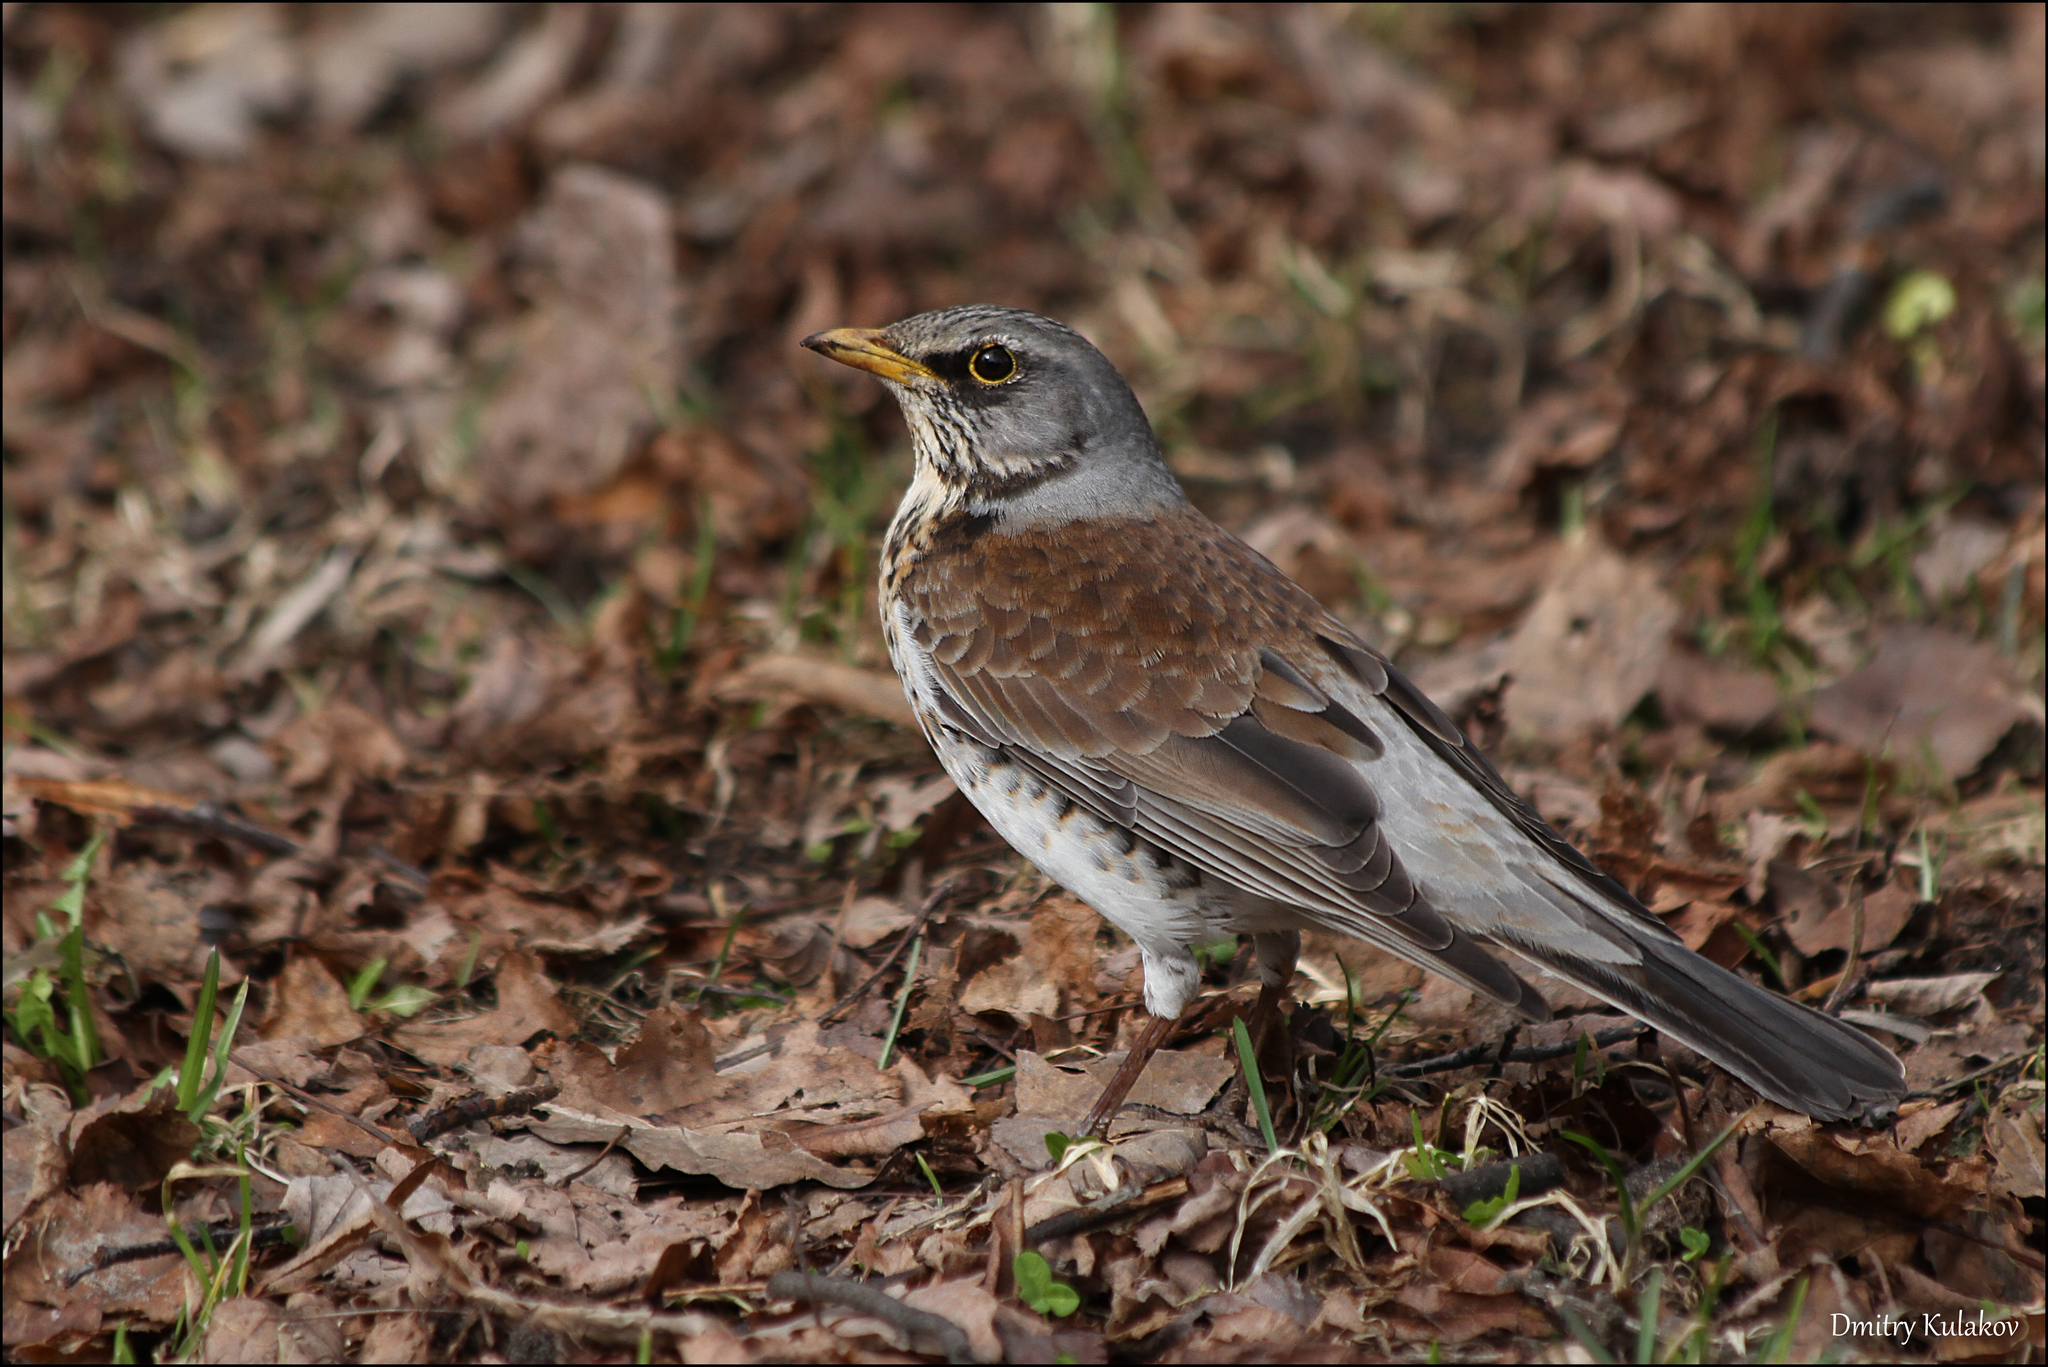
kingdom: Animalia
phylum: Chordata
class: Aves
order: Passeriformes
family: Turdidae
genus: Turdus
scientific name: Turdus pilaris
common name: Fieldfare
